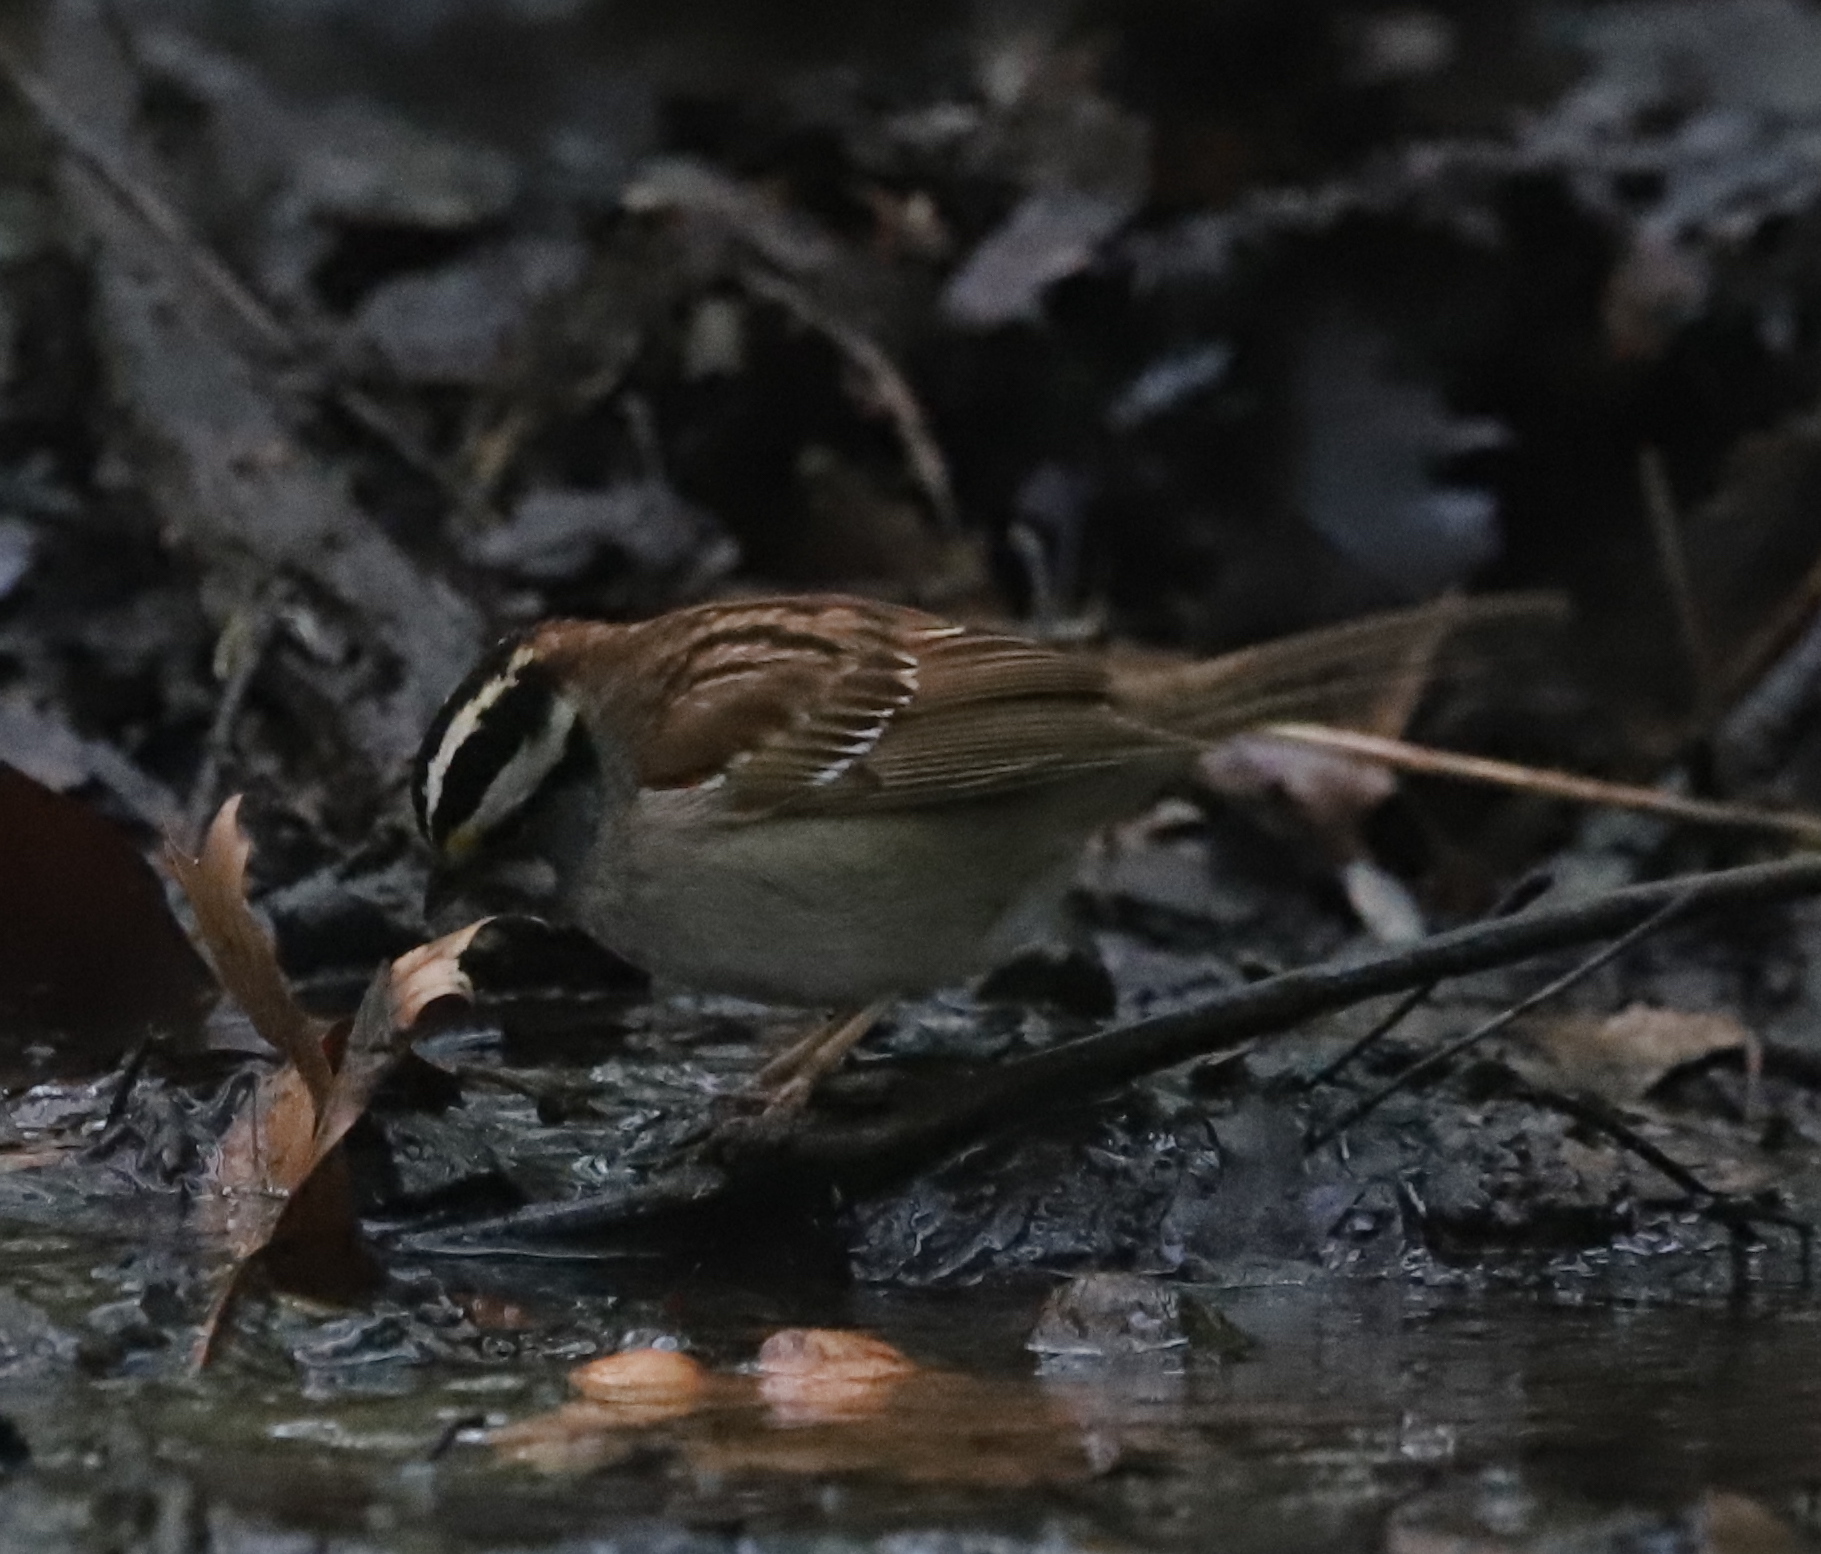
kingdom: Animalia
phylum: Chordata
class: Aves
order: Passeriformes
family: Passerellidae
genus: Zonotrichia
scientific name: Zonotrichia albicollis
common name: White-throated sparrow
